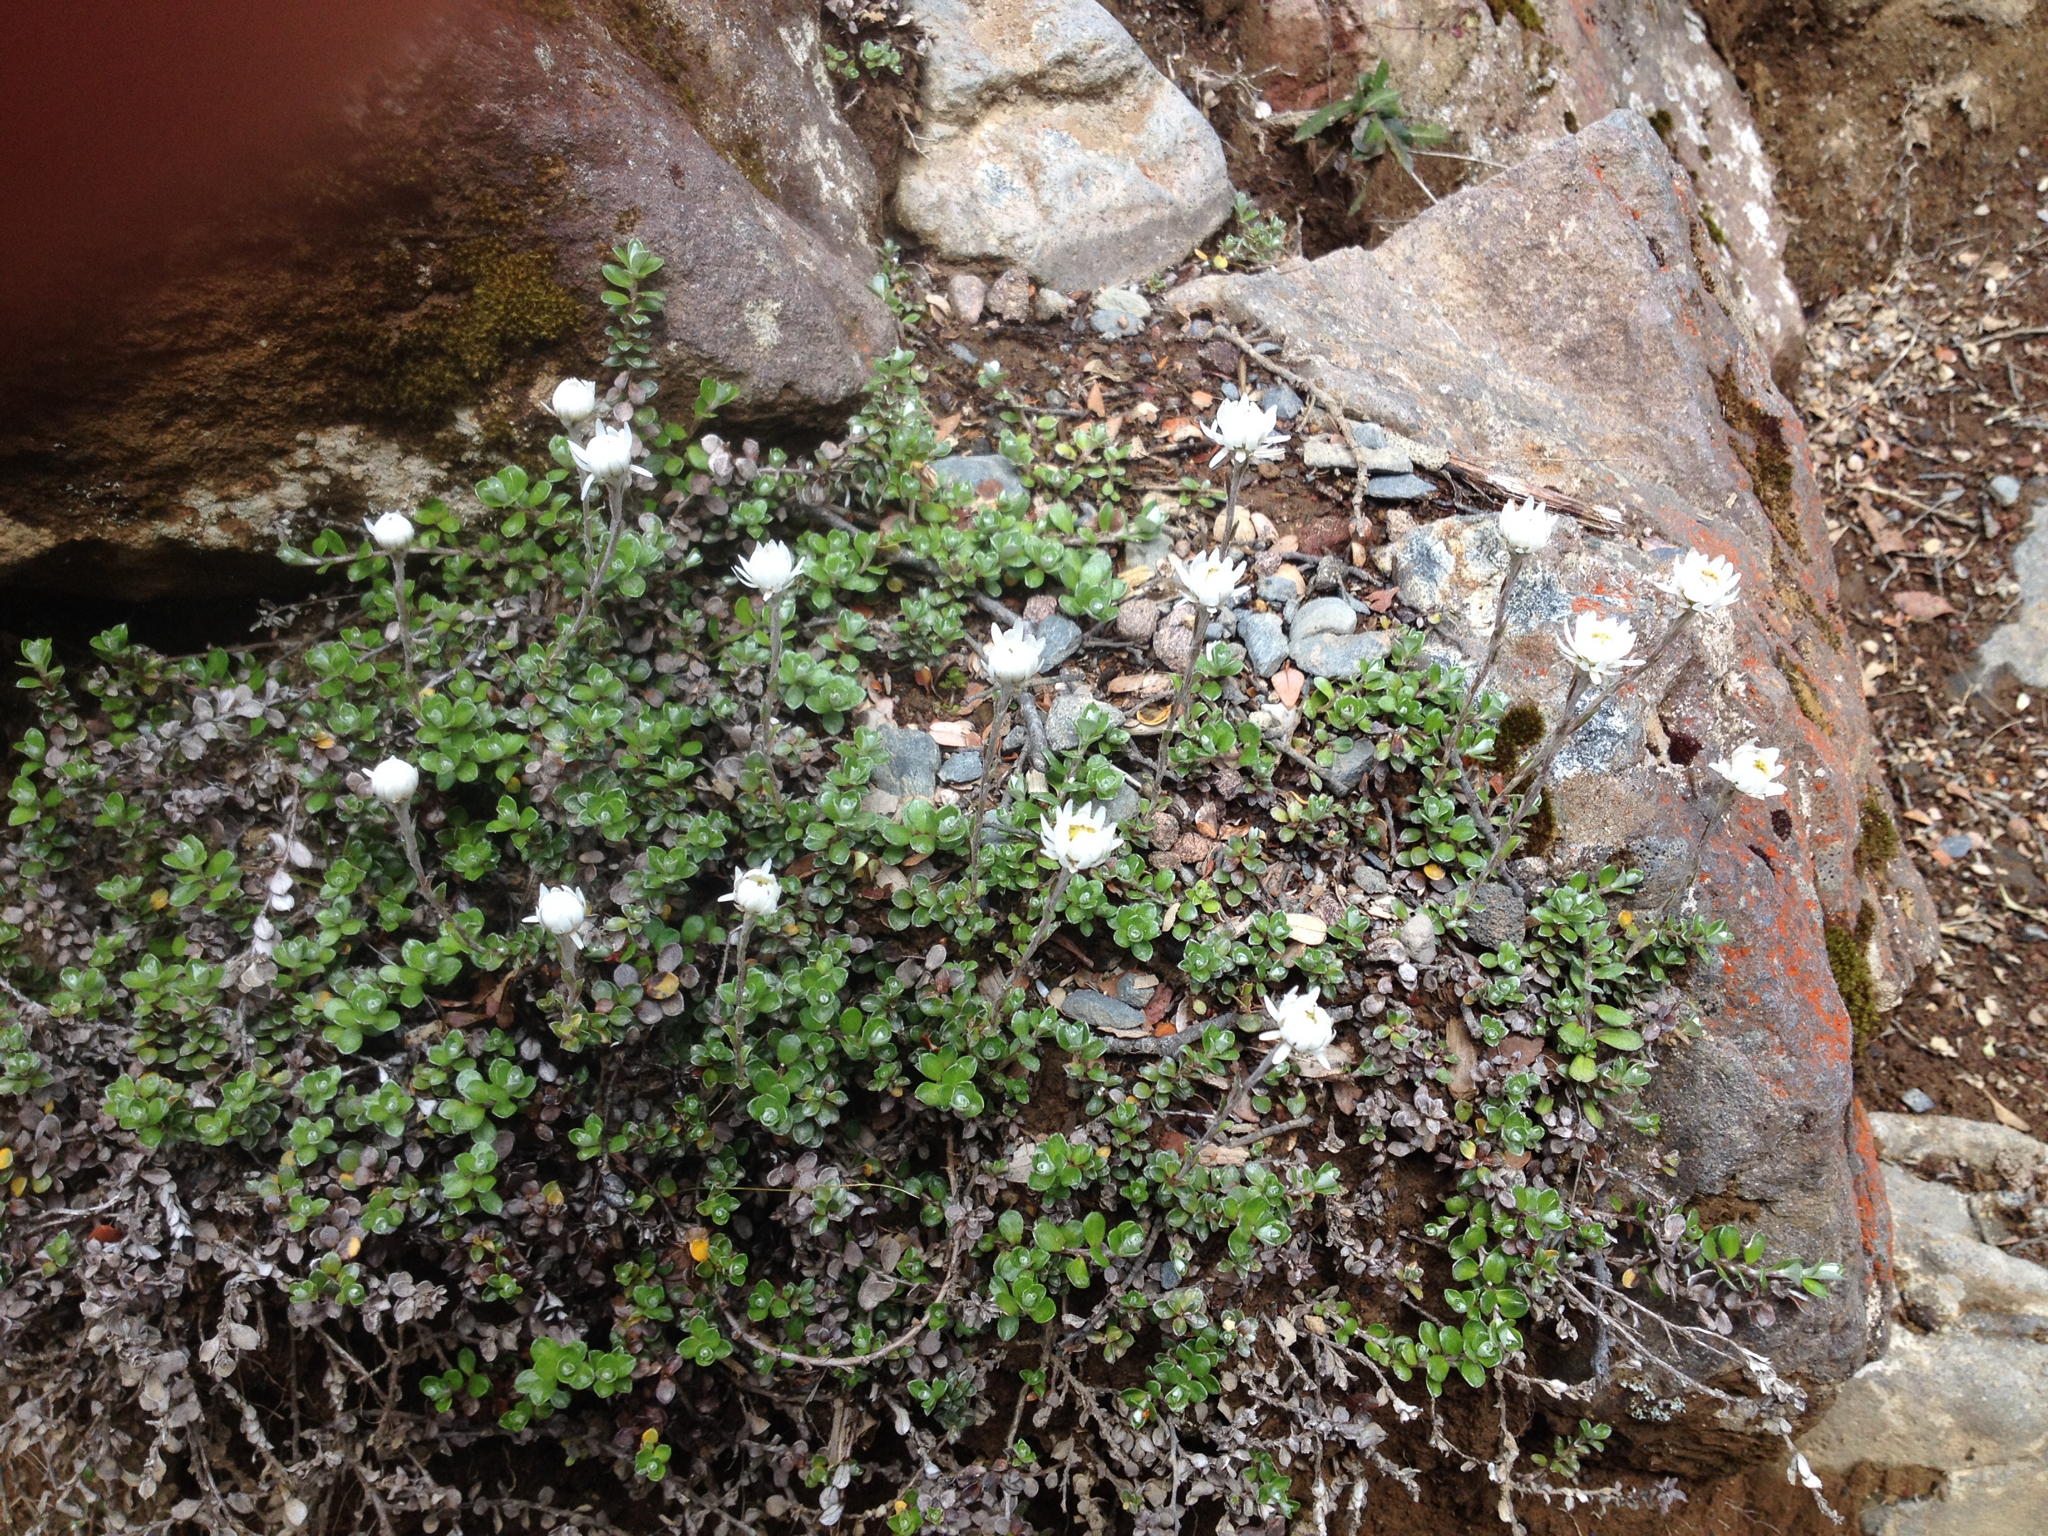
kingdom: Plantae
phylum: Tracheophyta
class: Magnoliopsida
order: Asterales
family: Asteraceae
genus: Anaphalioides
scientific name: Anaphalioides bellidioides
